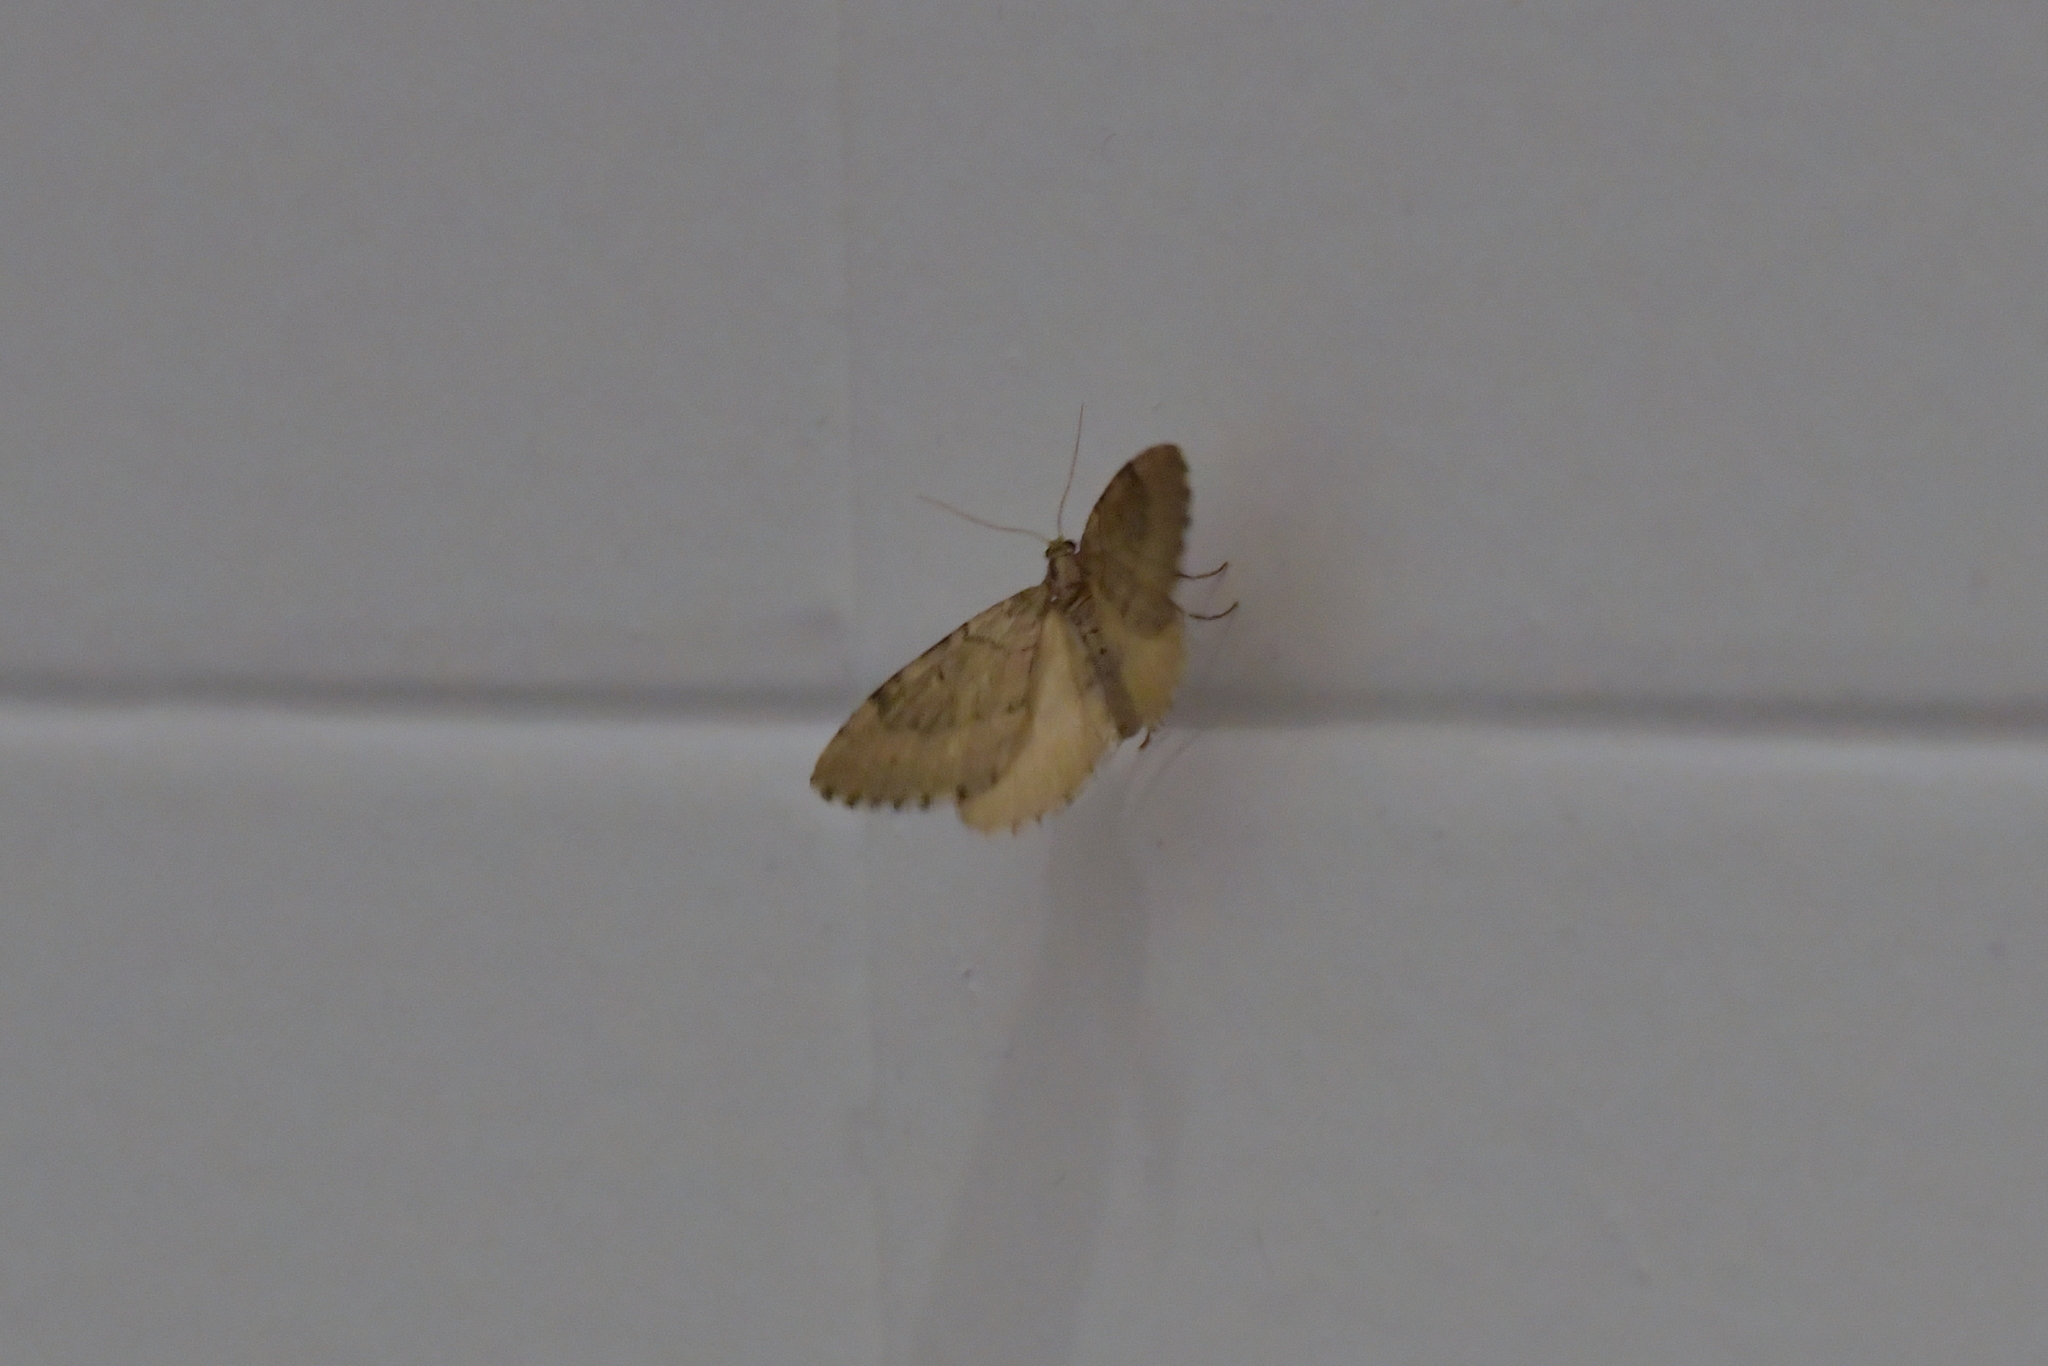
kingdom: Animalia
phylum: Arthropoda
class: Insecta
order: Lepidoptera
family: Geometridae
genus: Asaphodes
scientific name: Asaphodes aegrota
